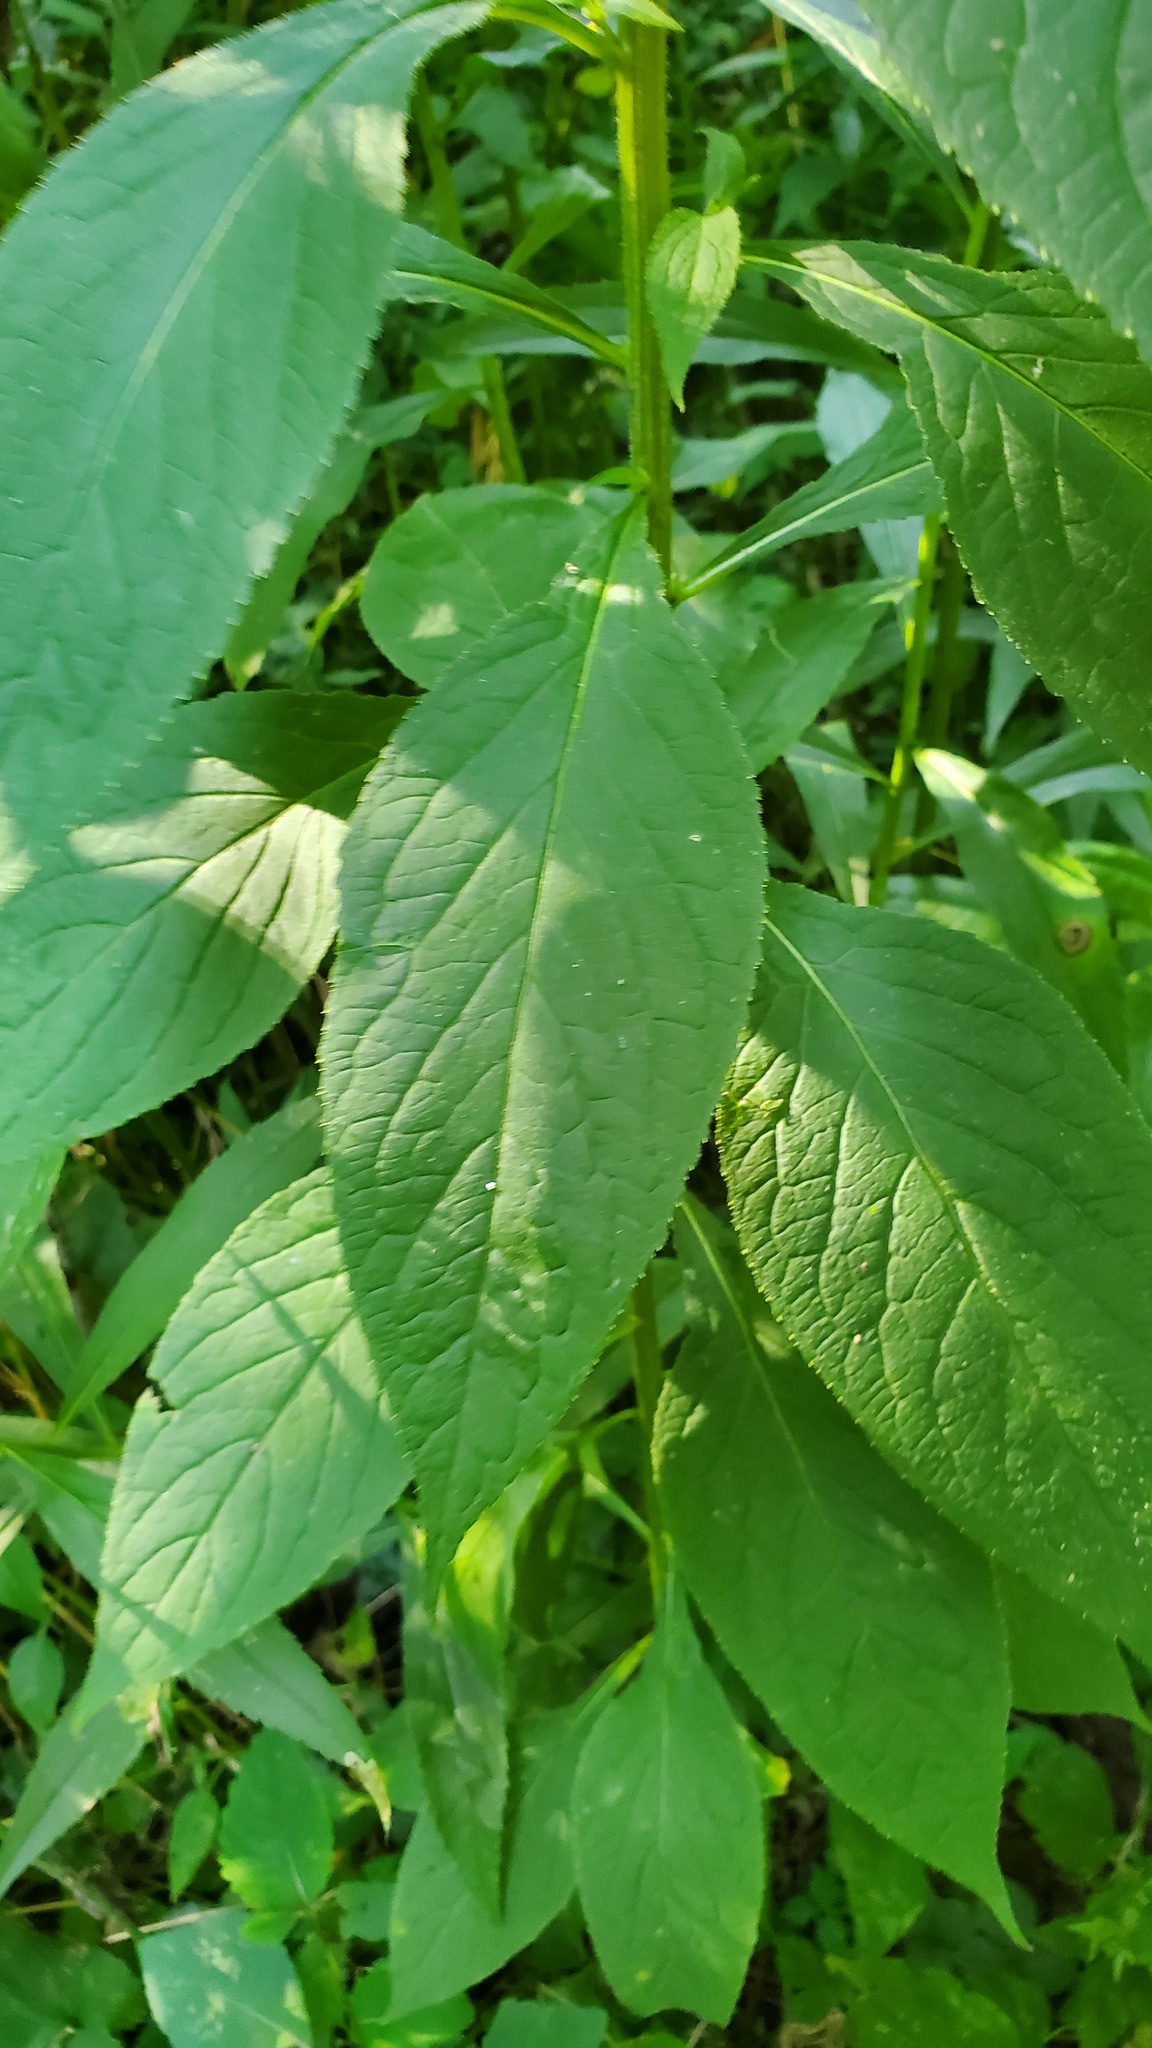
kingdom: Plantae
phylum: Tracheophyta
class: Magnoliopsida
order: Asterales
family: Campanulaceae
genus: Campanulastrum
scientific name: Campanulastrum americanum
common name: American bellflower
